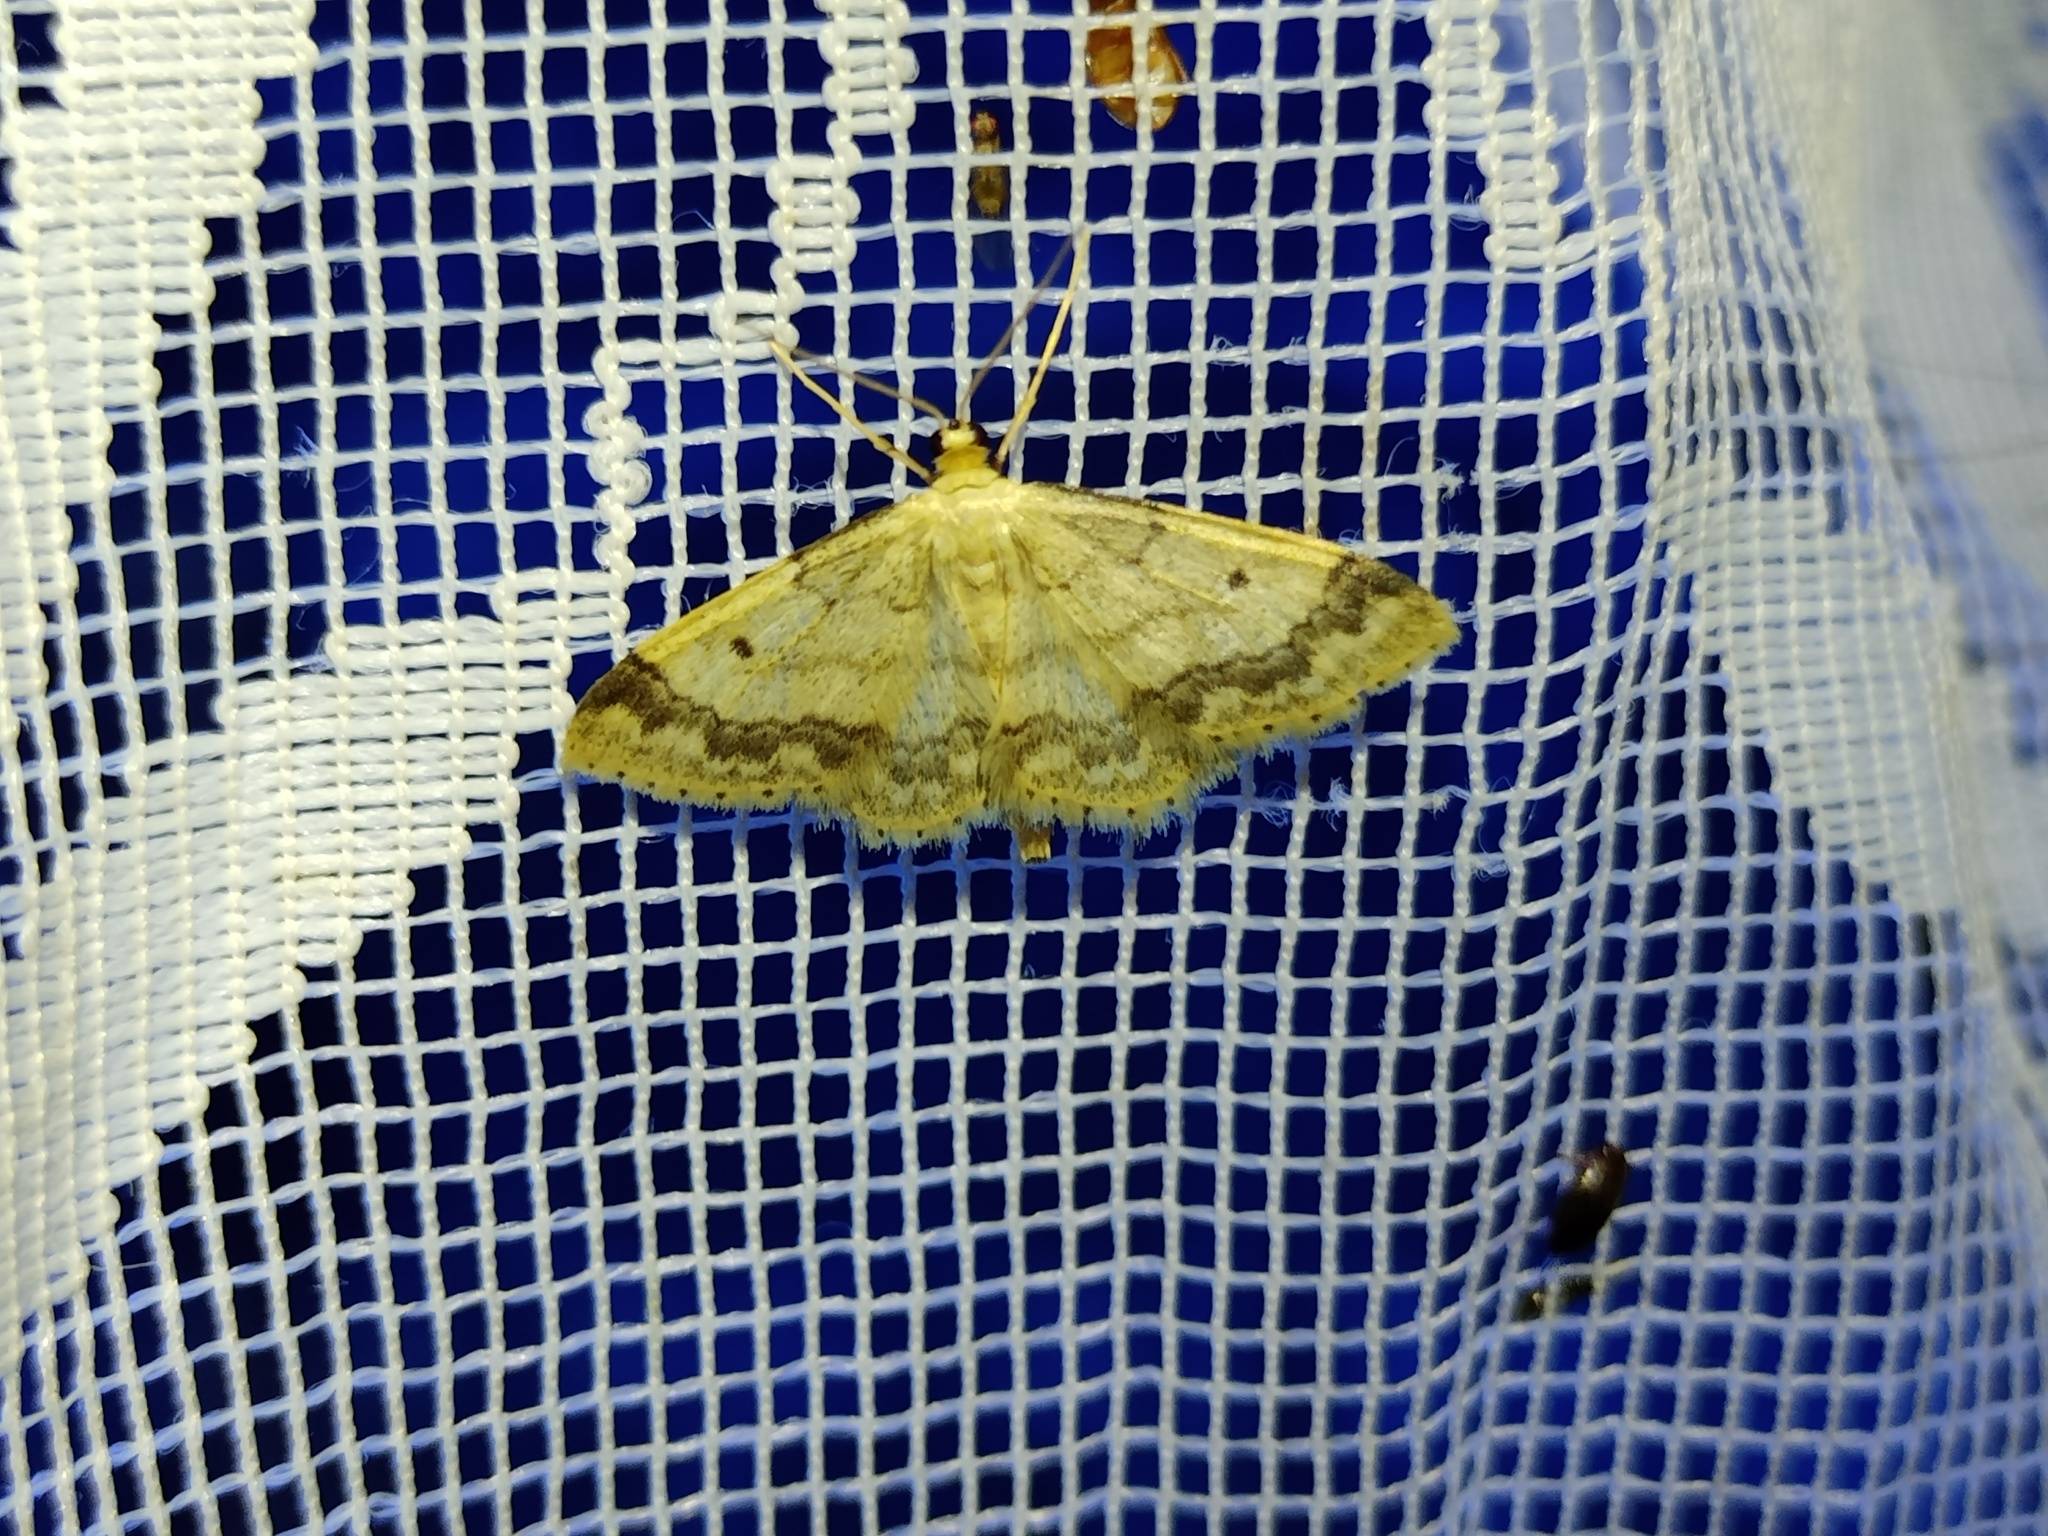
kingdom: Animalia
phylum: Arthropoda
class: Insecta
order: Lepidoptera
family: Geometridae
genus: Idaea
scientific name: Idaea biselata
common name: Small fan-footed wave
